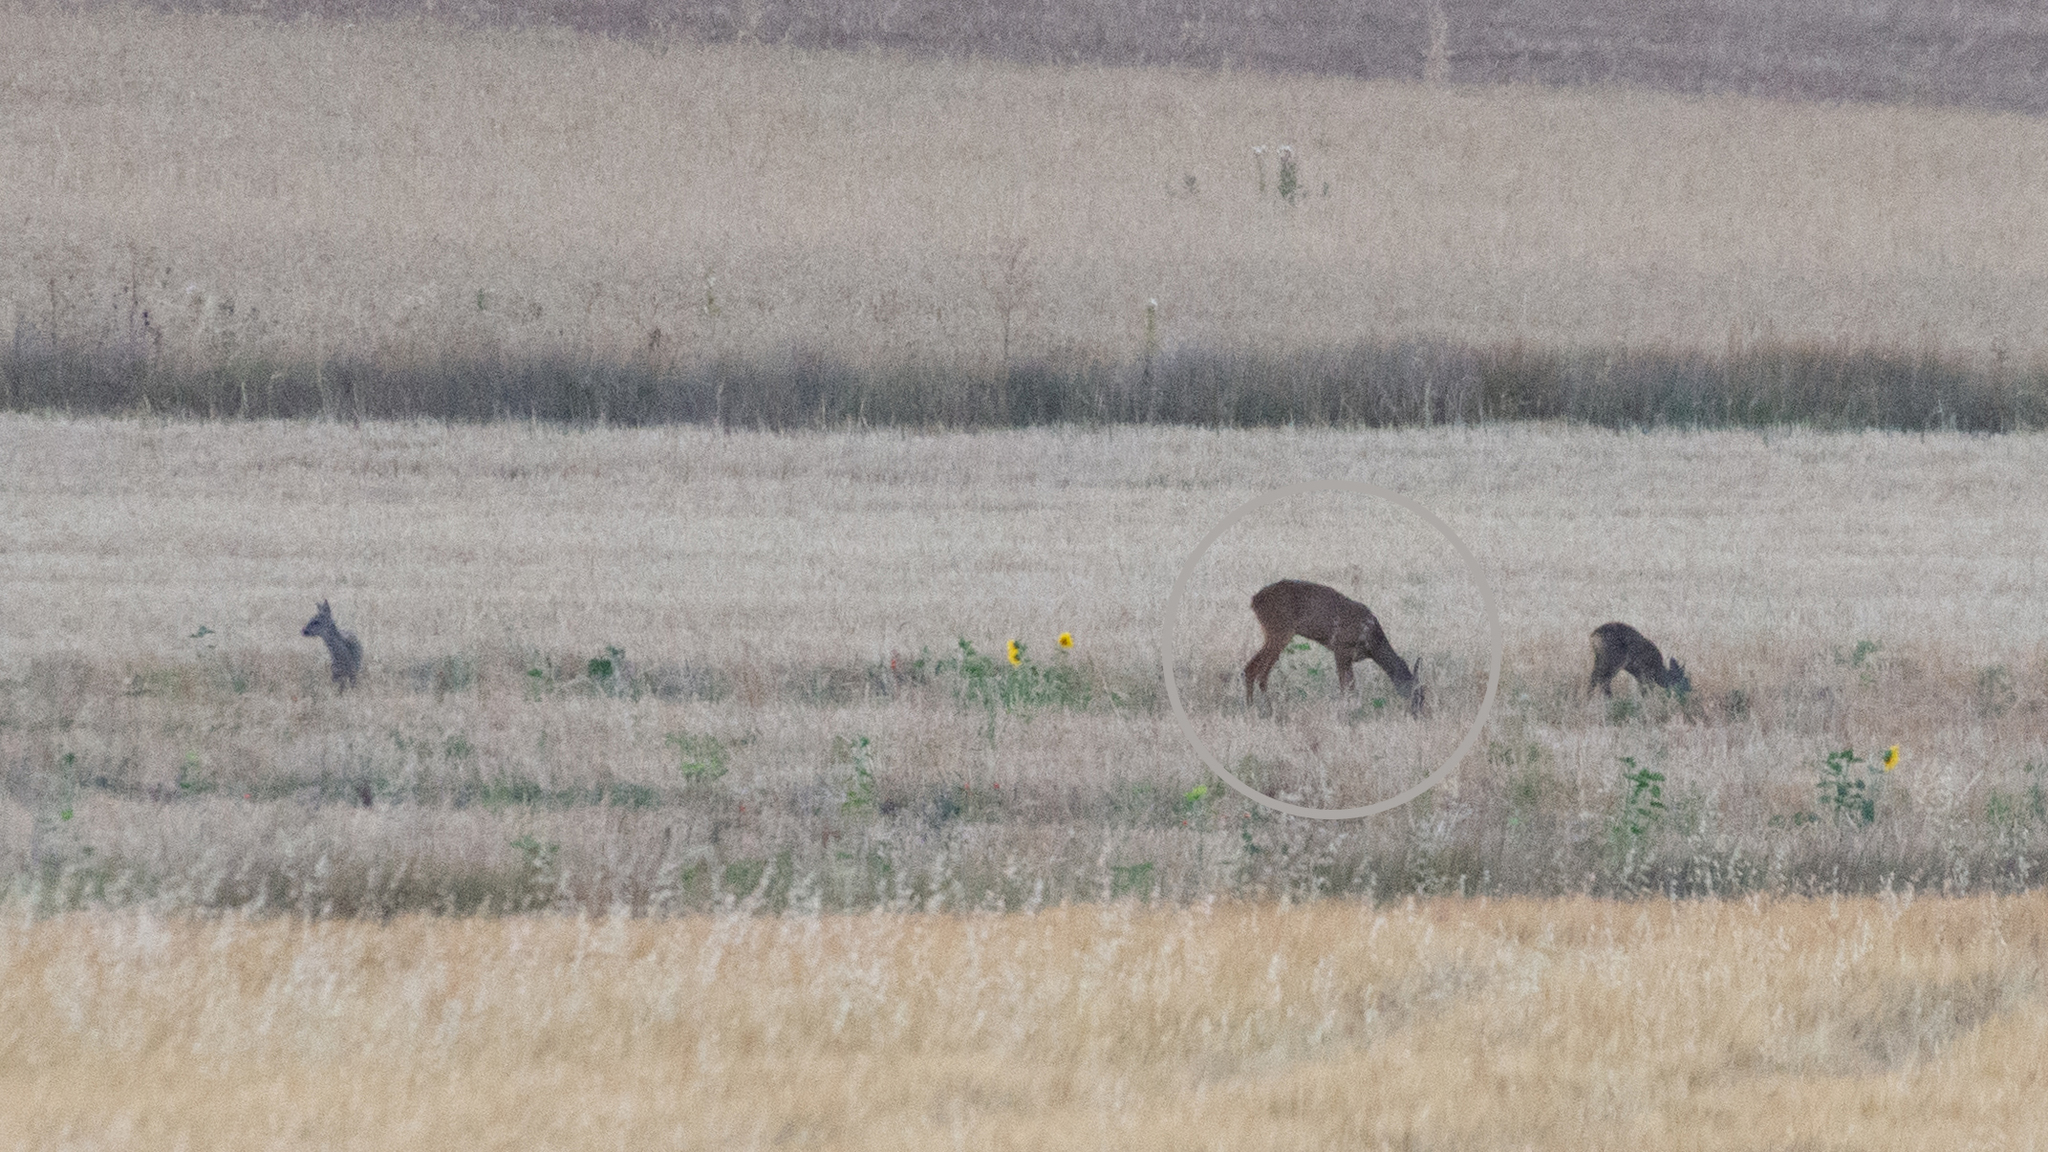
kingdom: Animalia
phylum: Chordata
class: Mammalia
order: Artiodactyla
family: Cervidae
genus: Capreolus
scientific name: Capreolus capreolus
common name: Western roe deer
